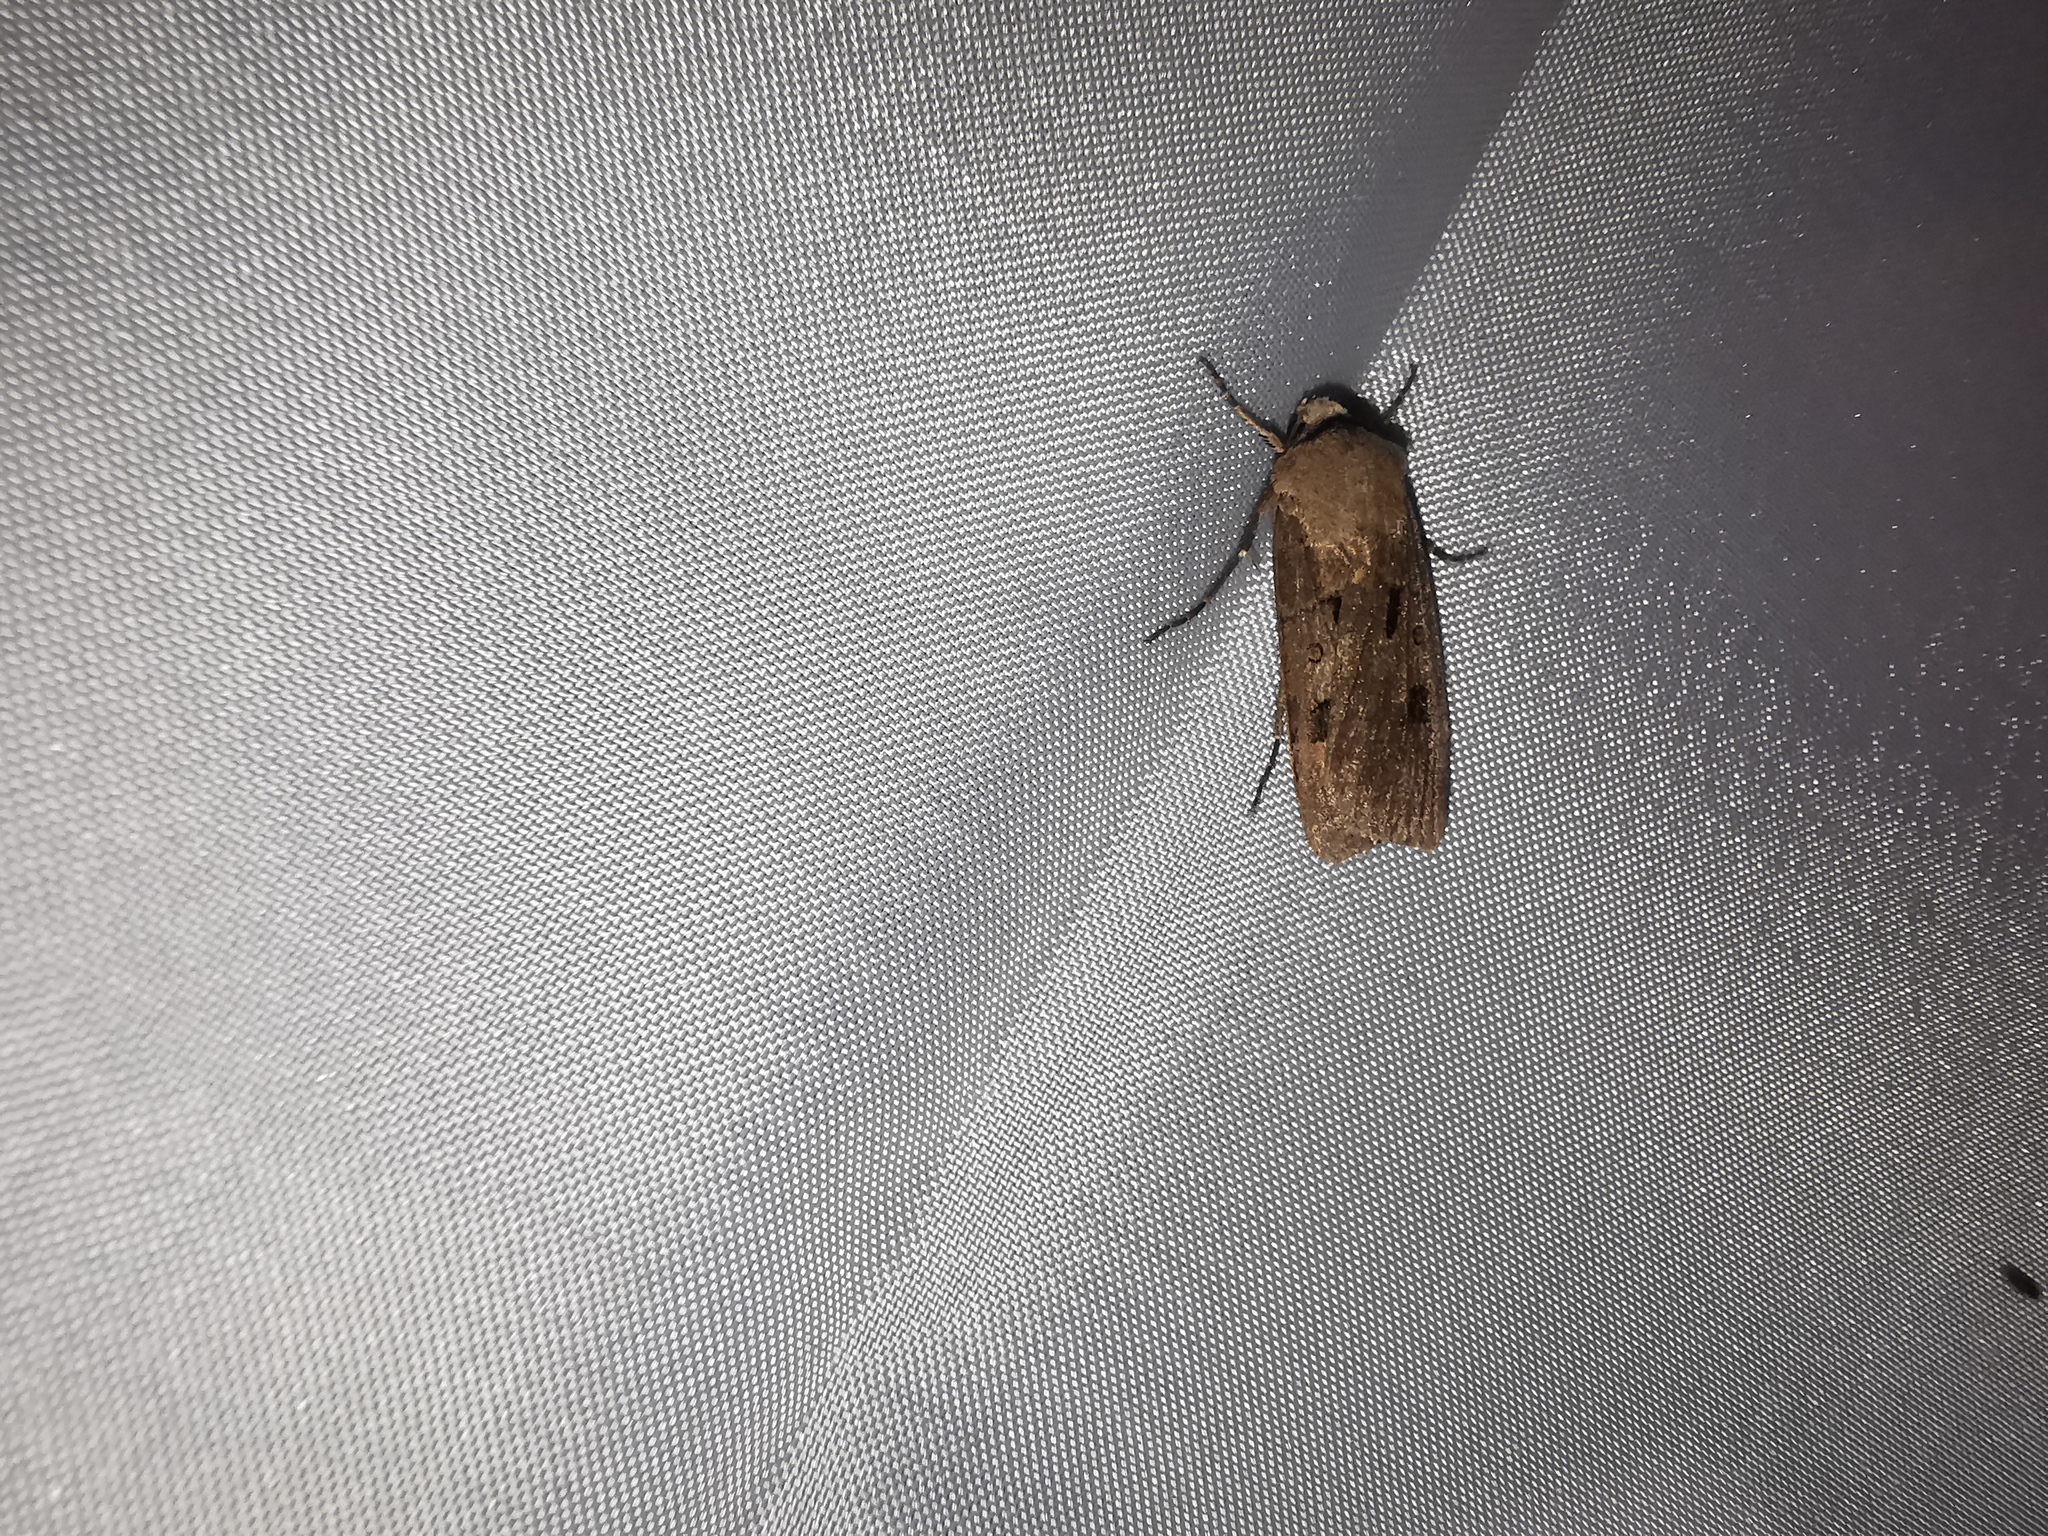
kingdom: Animalia
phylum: Arthropoda
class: Insecta
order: Lepidoptera
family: Noctuidae
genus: Agrotis
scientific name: Agrotis exclamationis
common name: Heart and dart
